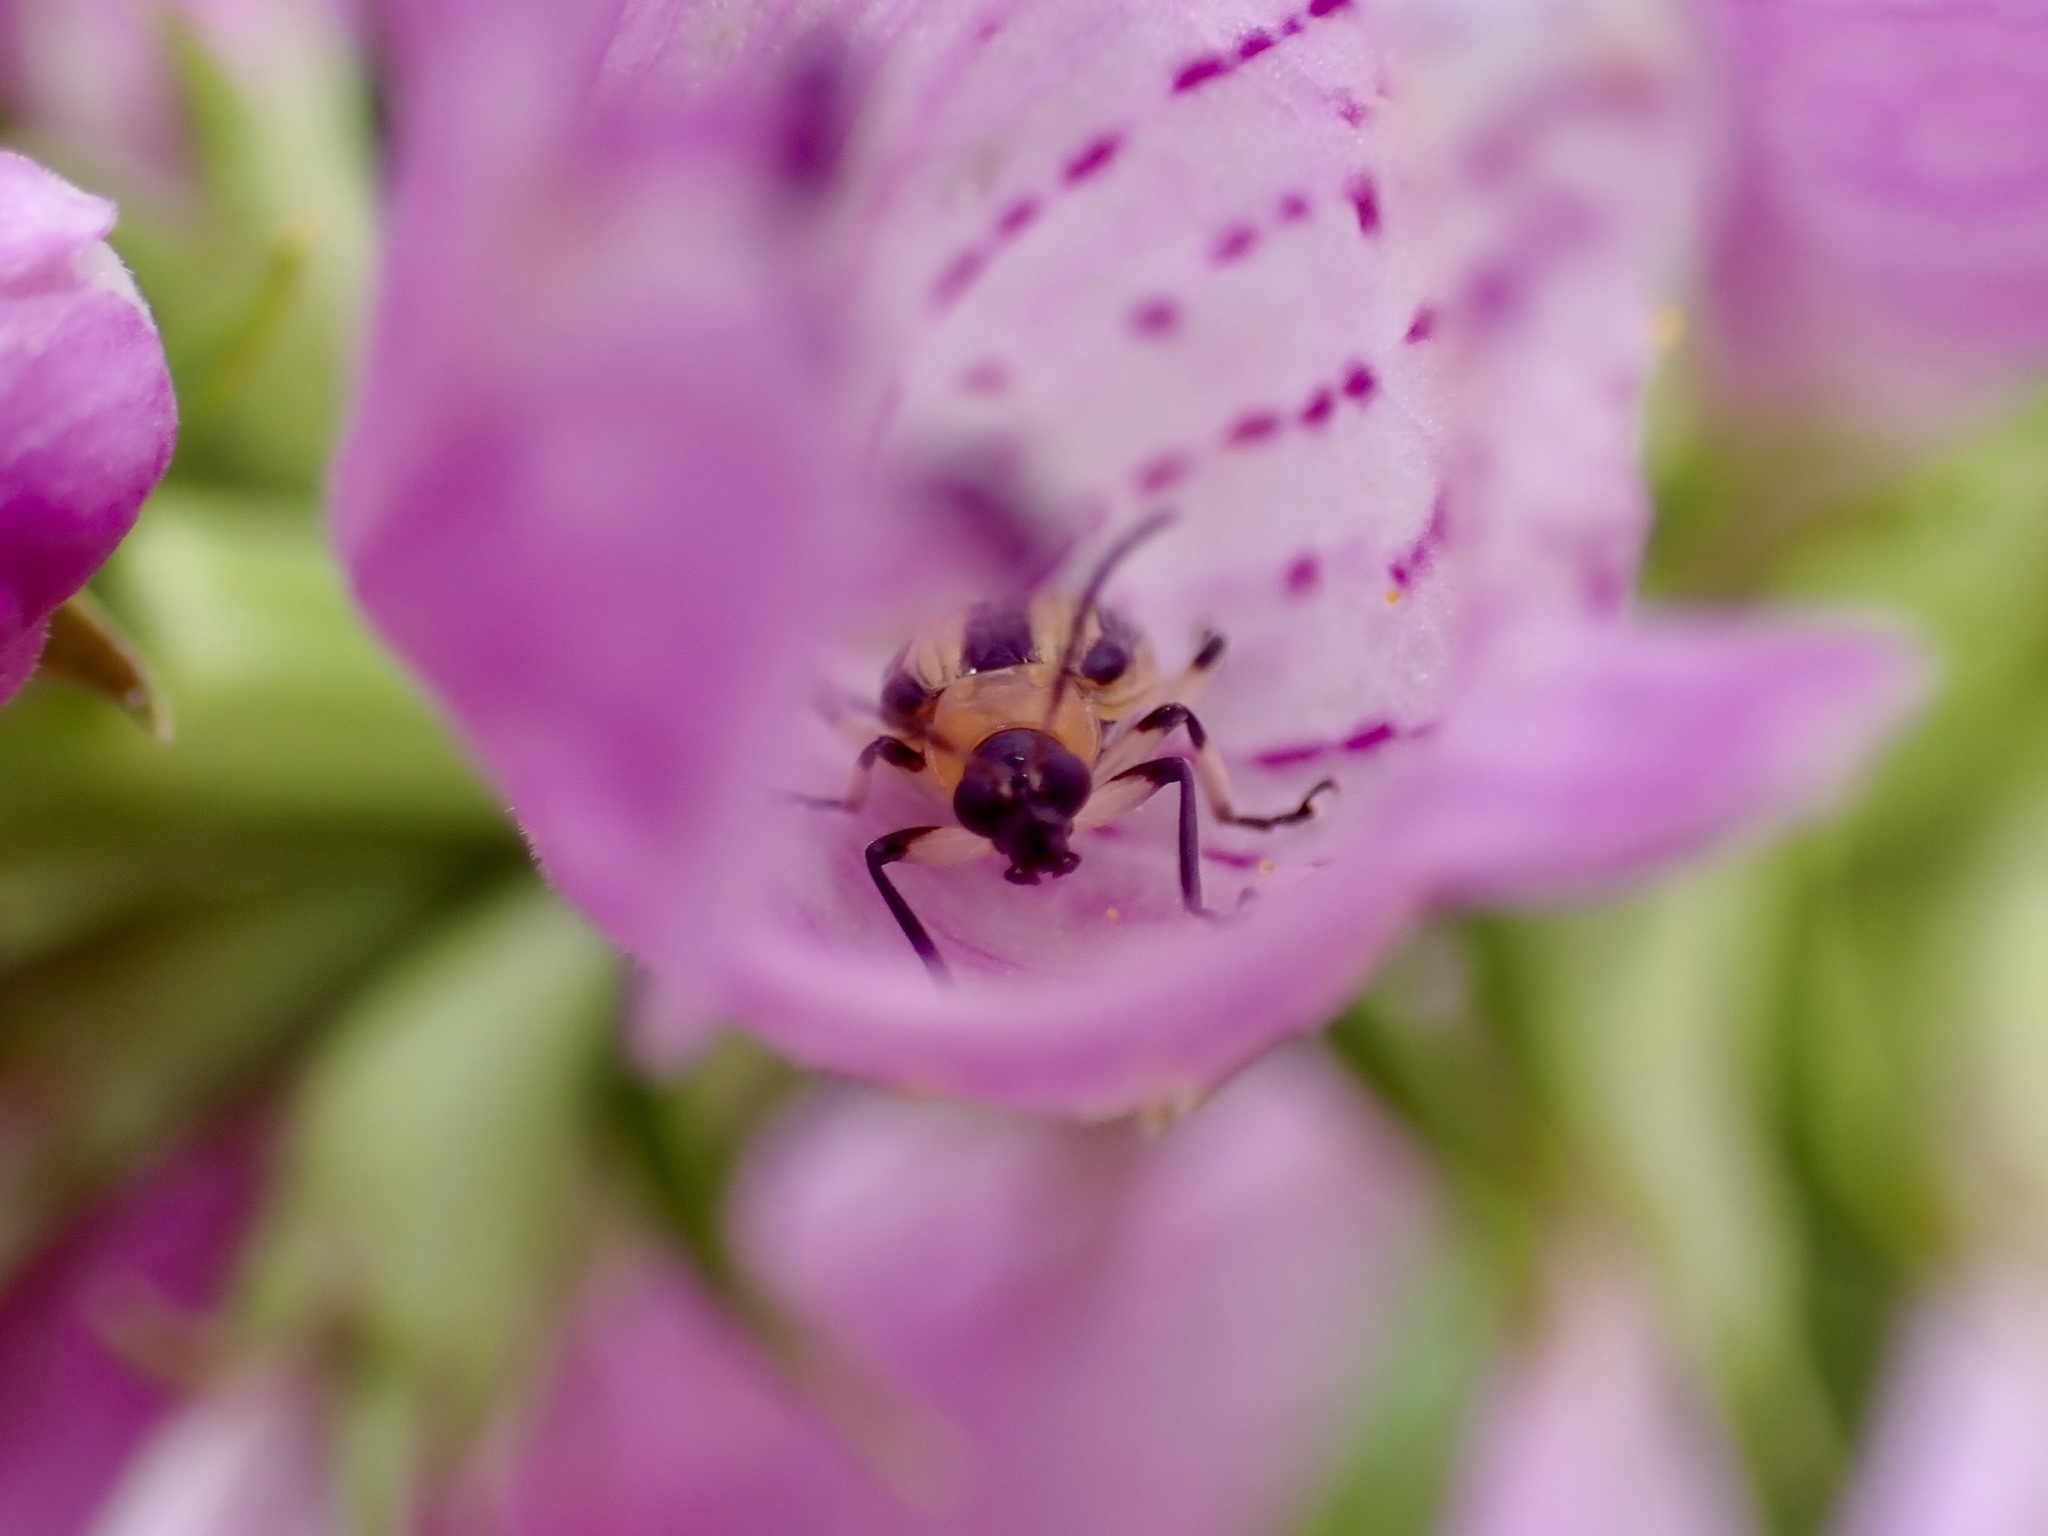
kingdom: Animalia
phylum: Arthropoda
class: Insecta
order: Coleoptera
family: Chrysomelidae
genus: Acalymma
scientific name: Acalymma vittatum
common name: Striped cucumber beetle
